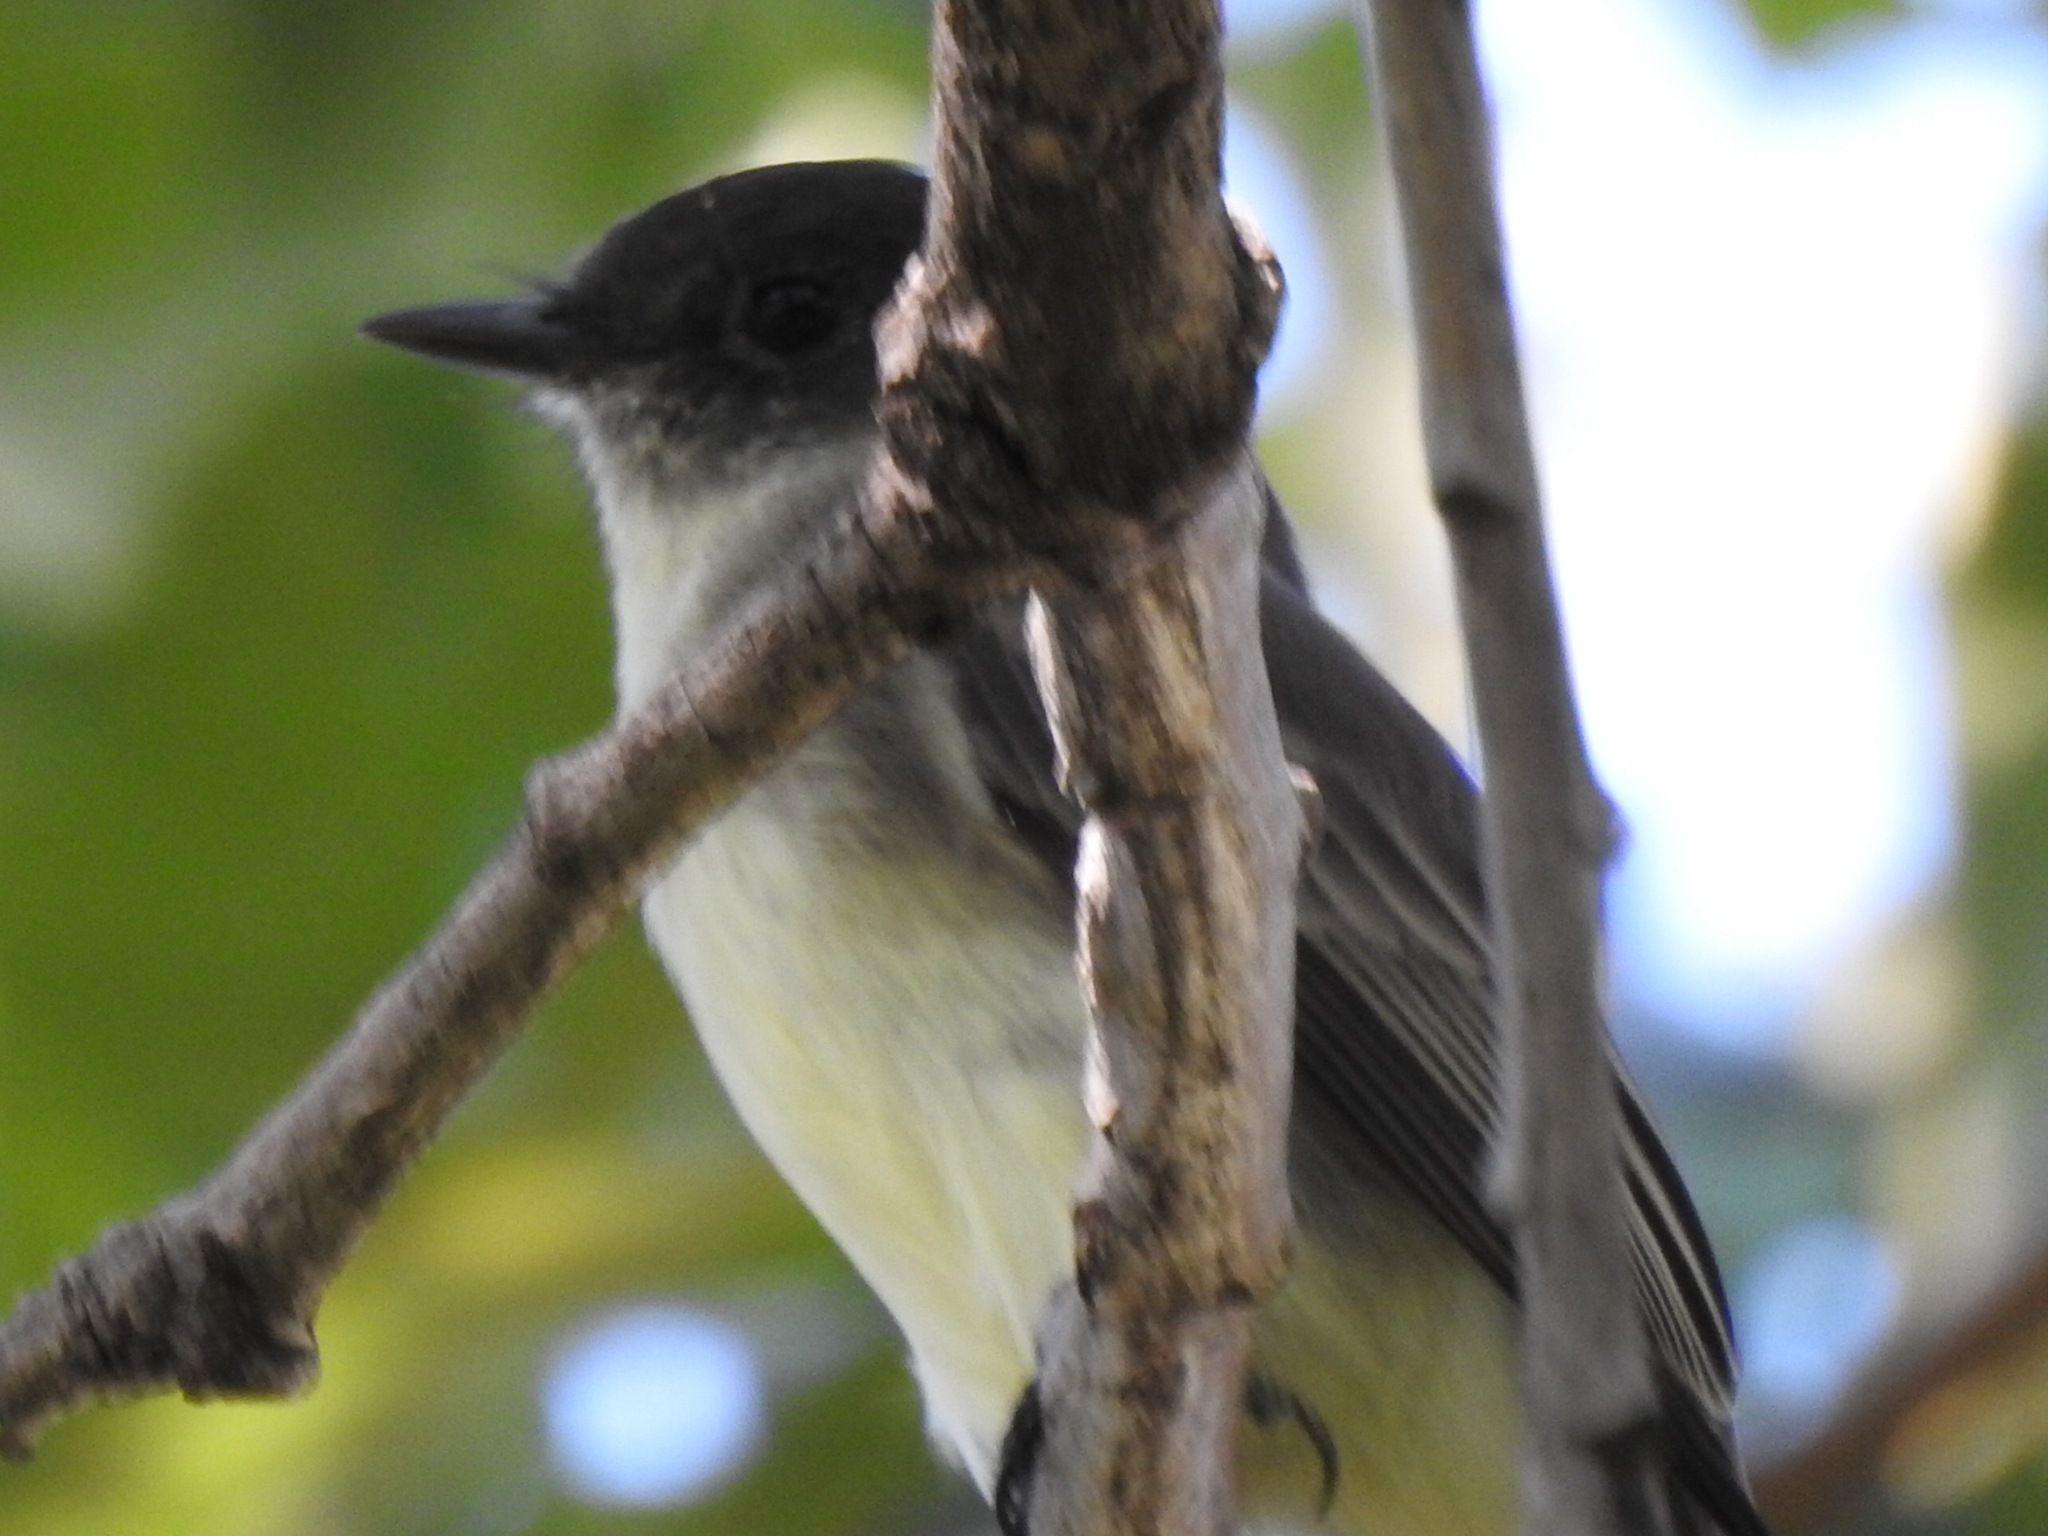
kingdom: Animalia
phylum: Chordata
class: Aves
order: Passeriformes
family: Tyrannidae
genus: Sayornis
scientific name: Sayornis phoebe
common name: Eastern phoebe
